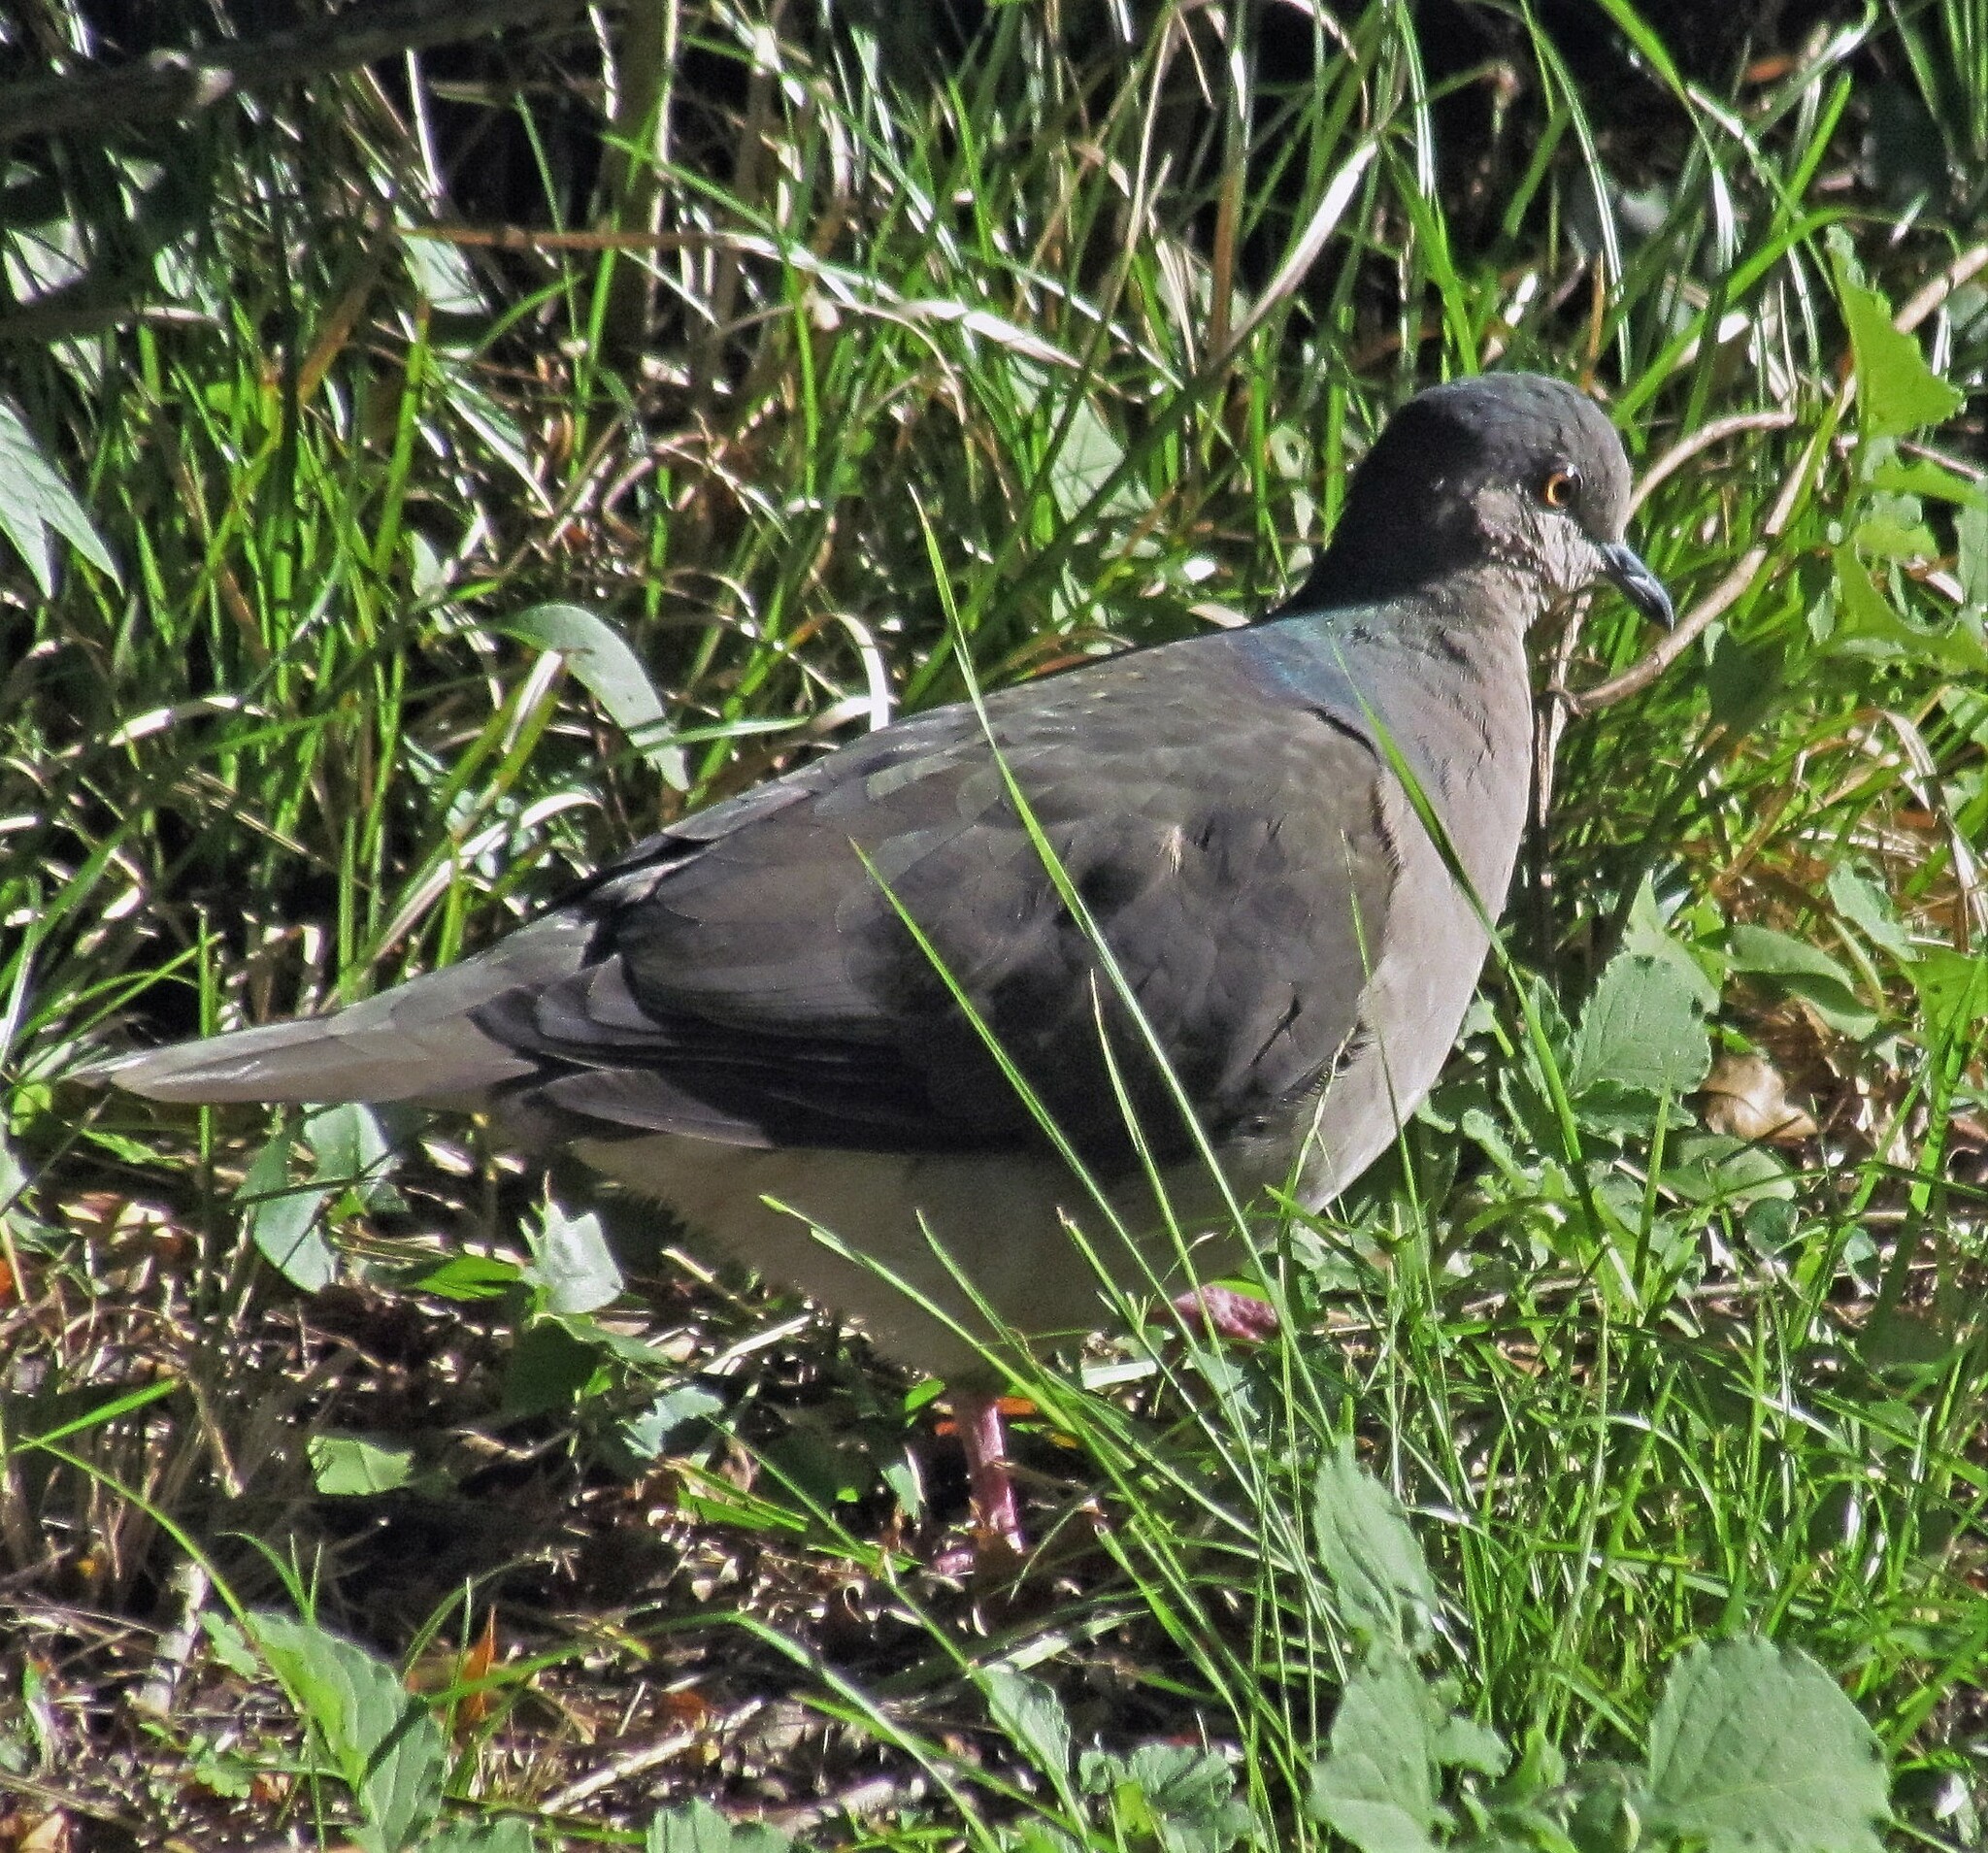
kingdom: Animalia
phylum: Chordata
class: Aves
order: Columbiformes
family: Columbidae
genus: Leptotila
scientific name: Leptotila verreauxi
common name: White-tipped dove
